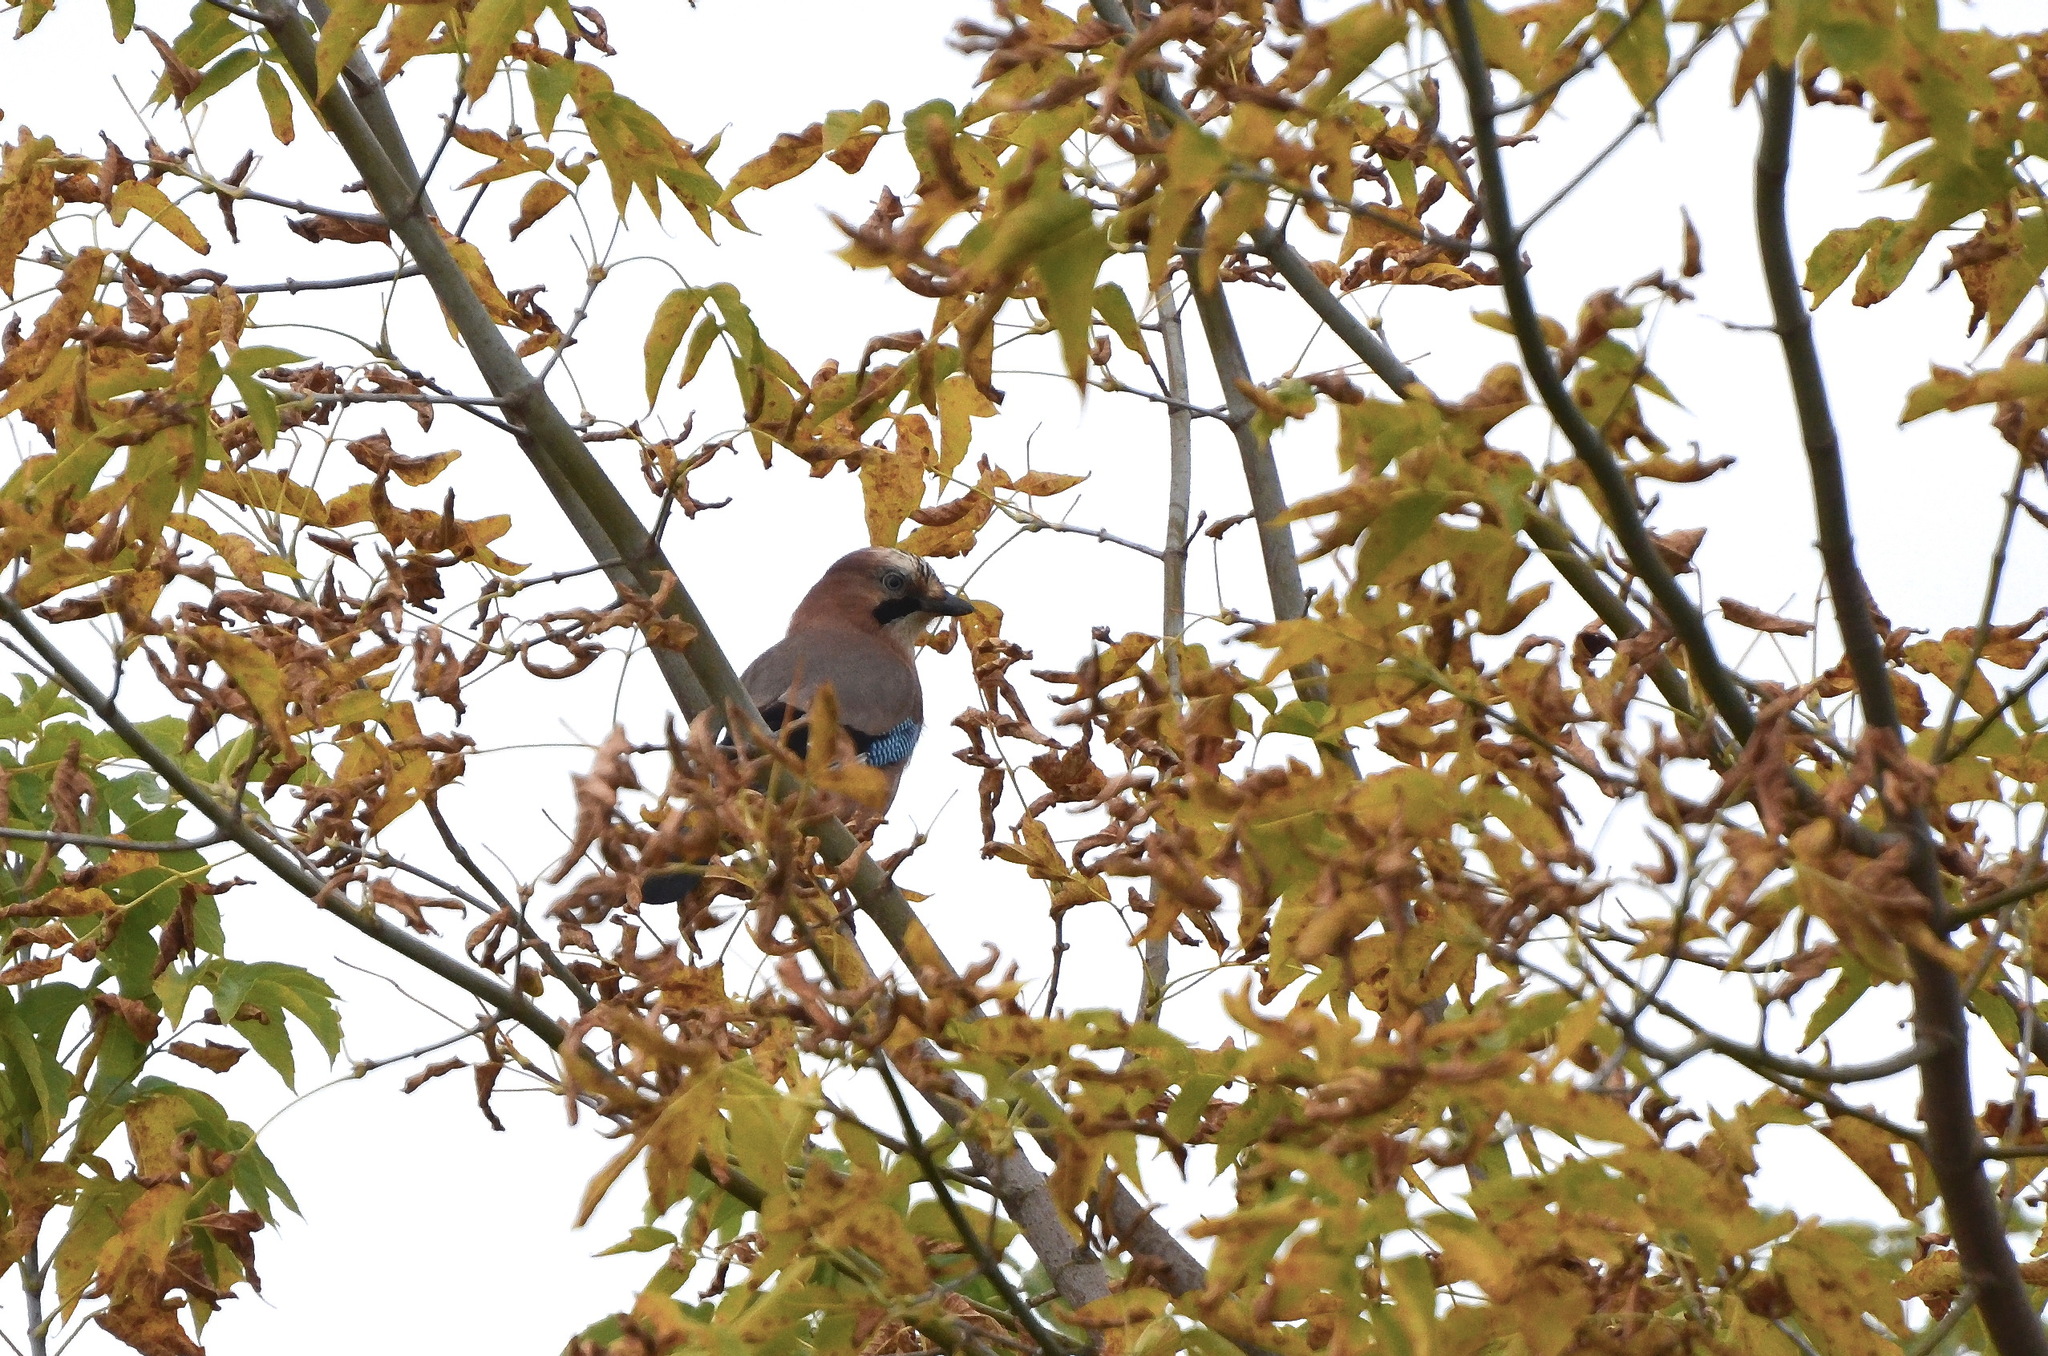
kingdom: Animalia
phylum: Chordata
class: Aves
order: Passeriformes
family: Corvidae
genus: Garrulus
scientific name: Garrulus glandarius
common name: Eurasian jay
